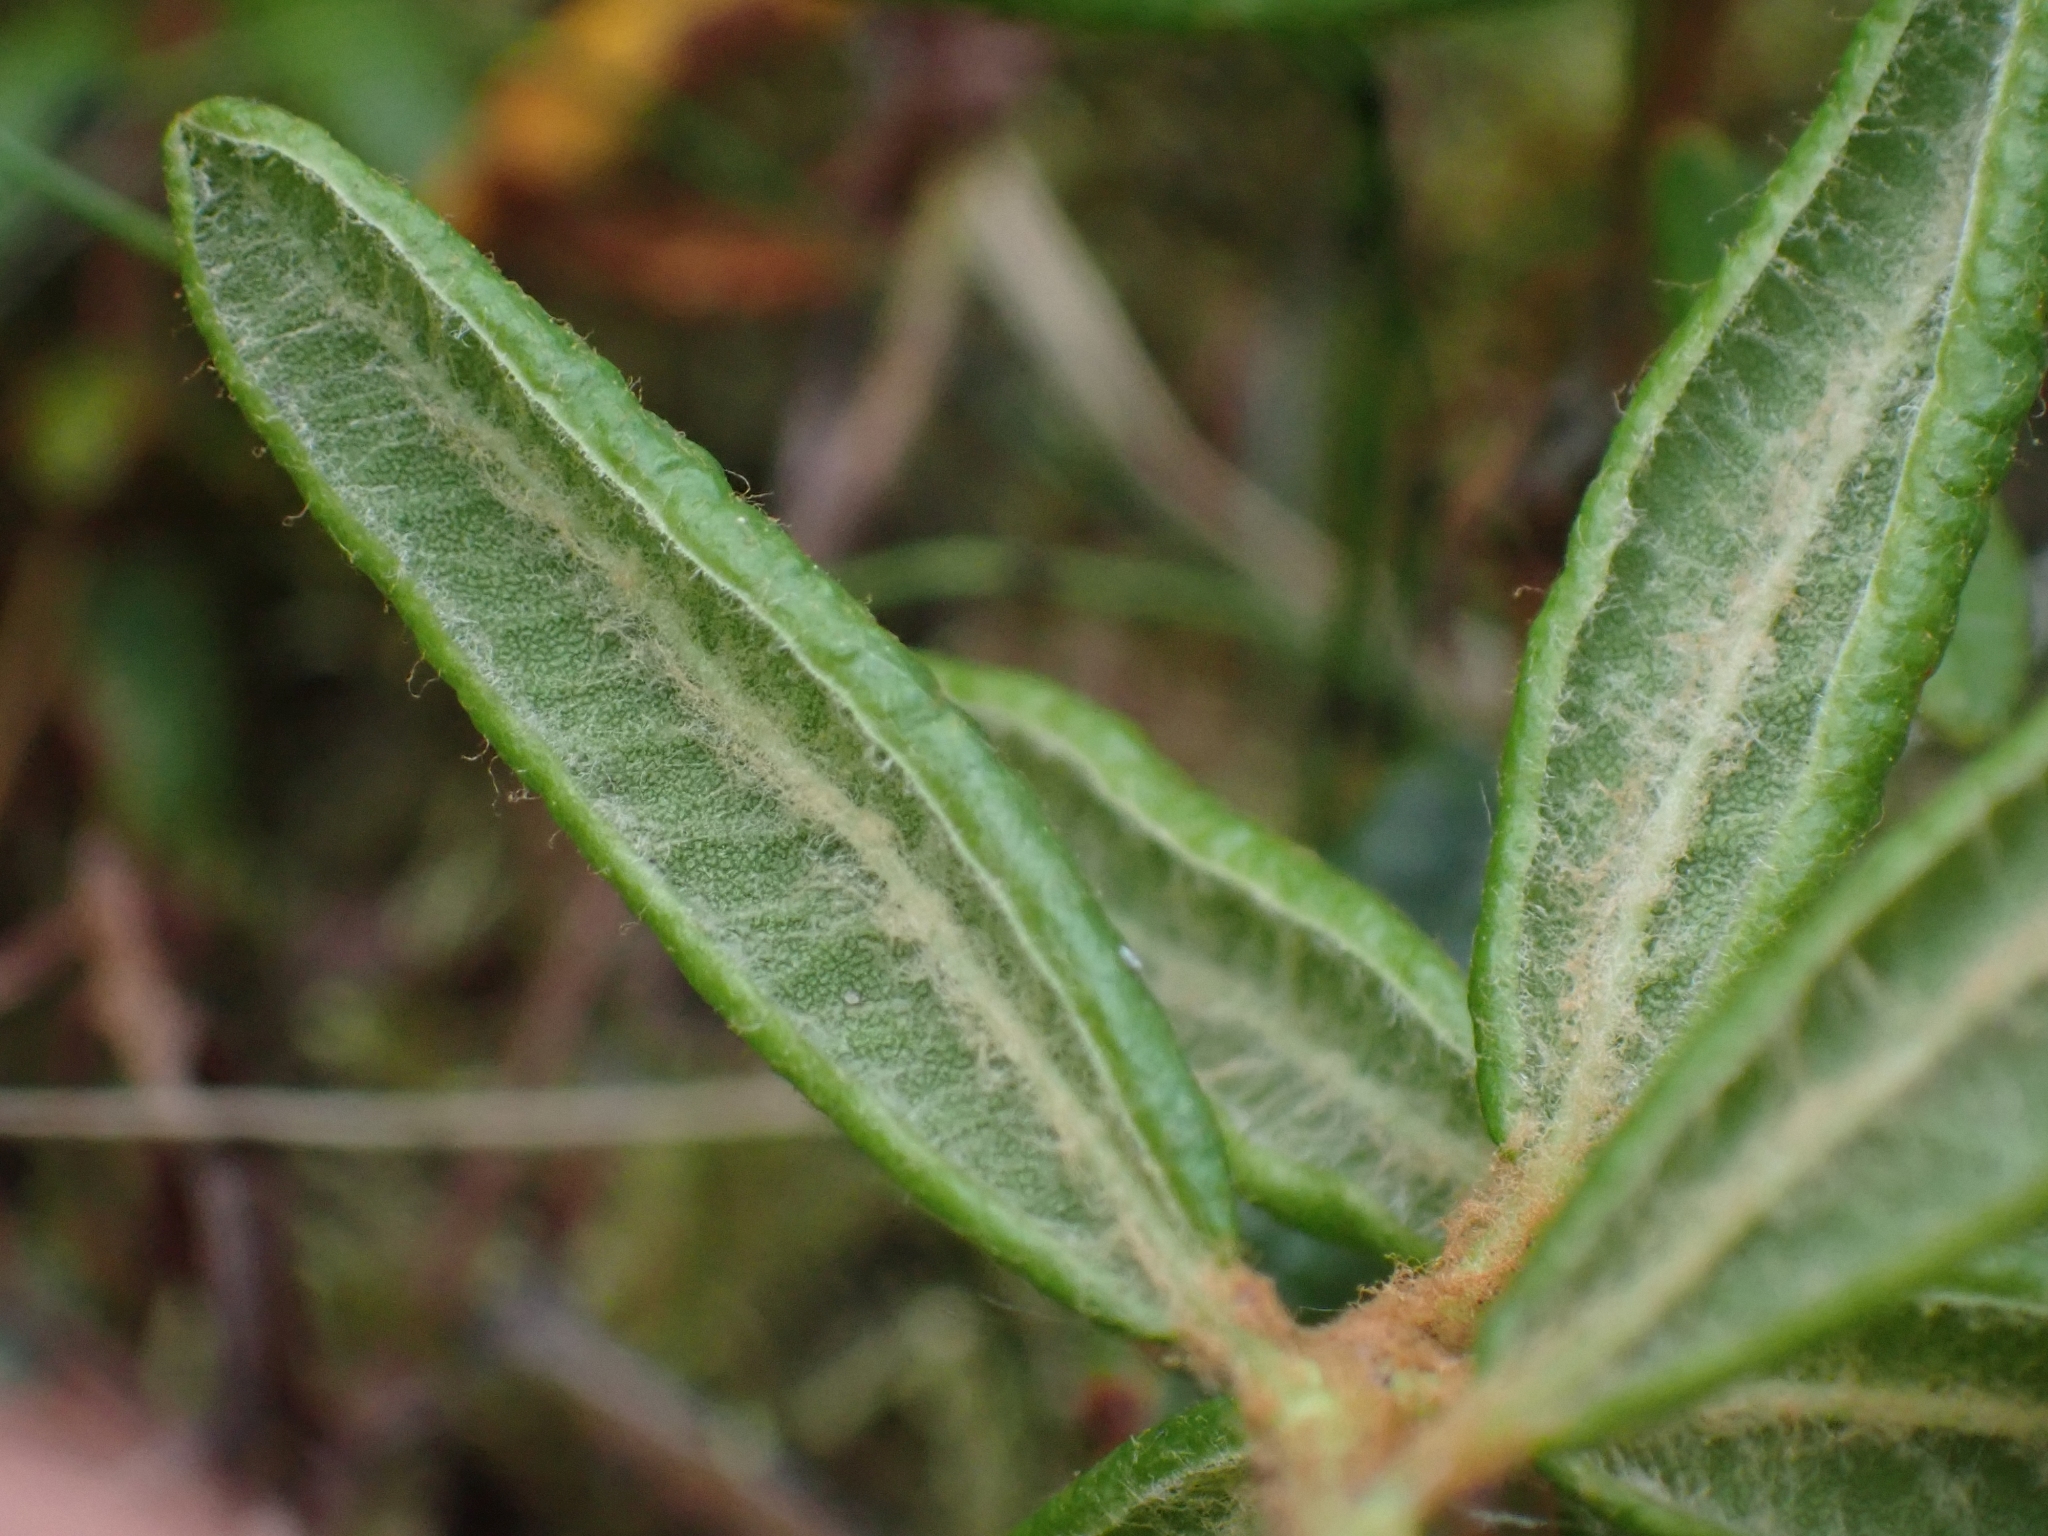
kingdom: Plantae
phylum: Tracheophyta
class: Magnoliopsida
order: Ericales
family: Ericaceae
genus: Rhododendron
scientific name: Rhododendron groenlandicum
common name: Bog labrador tea
